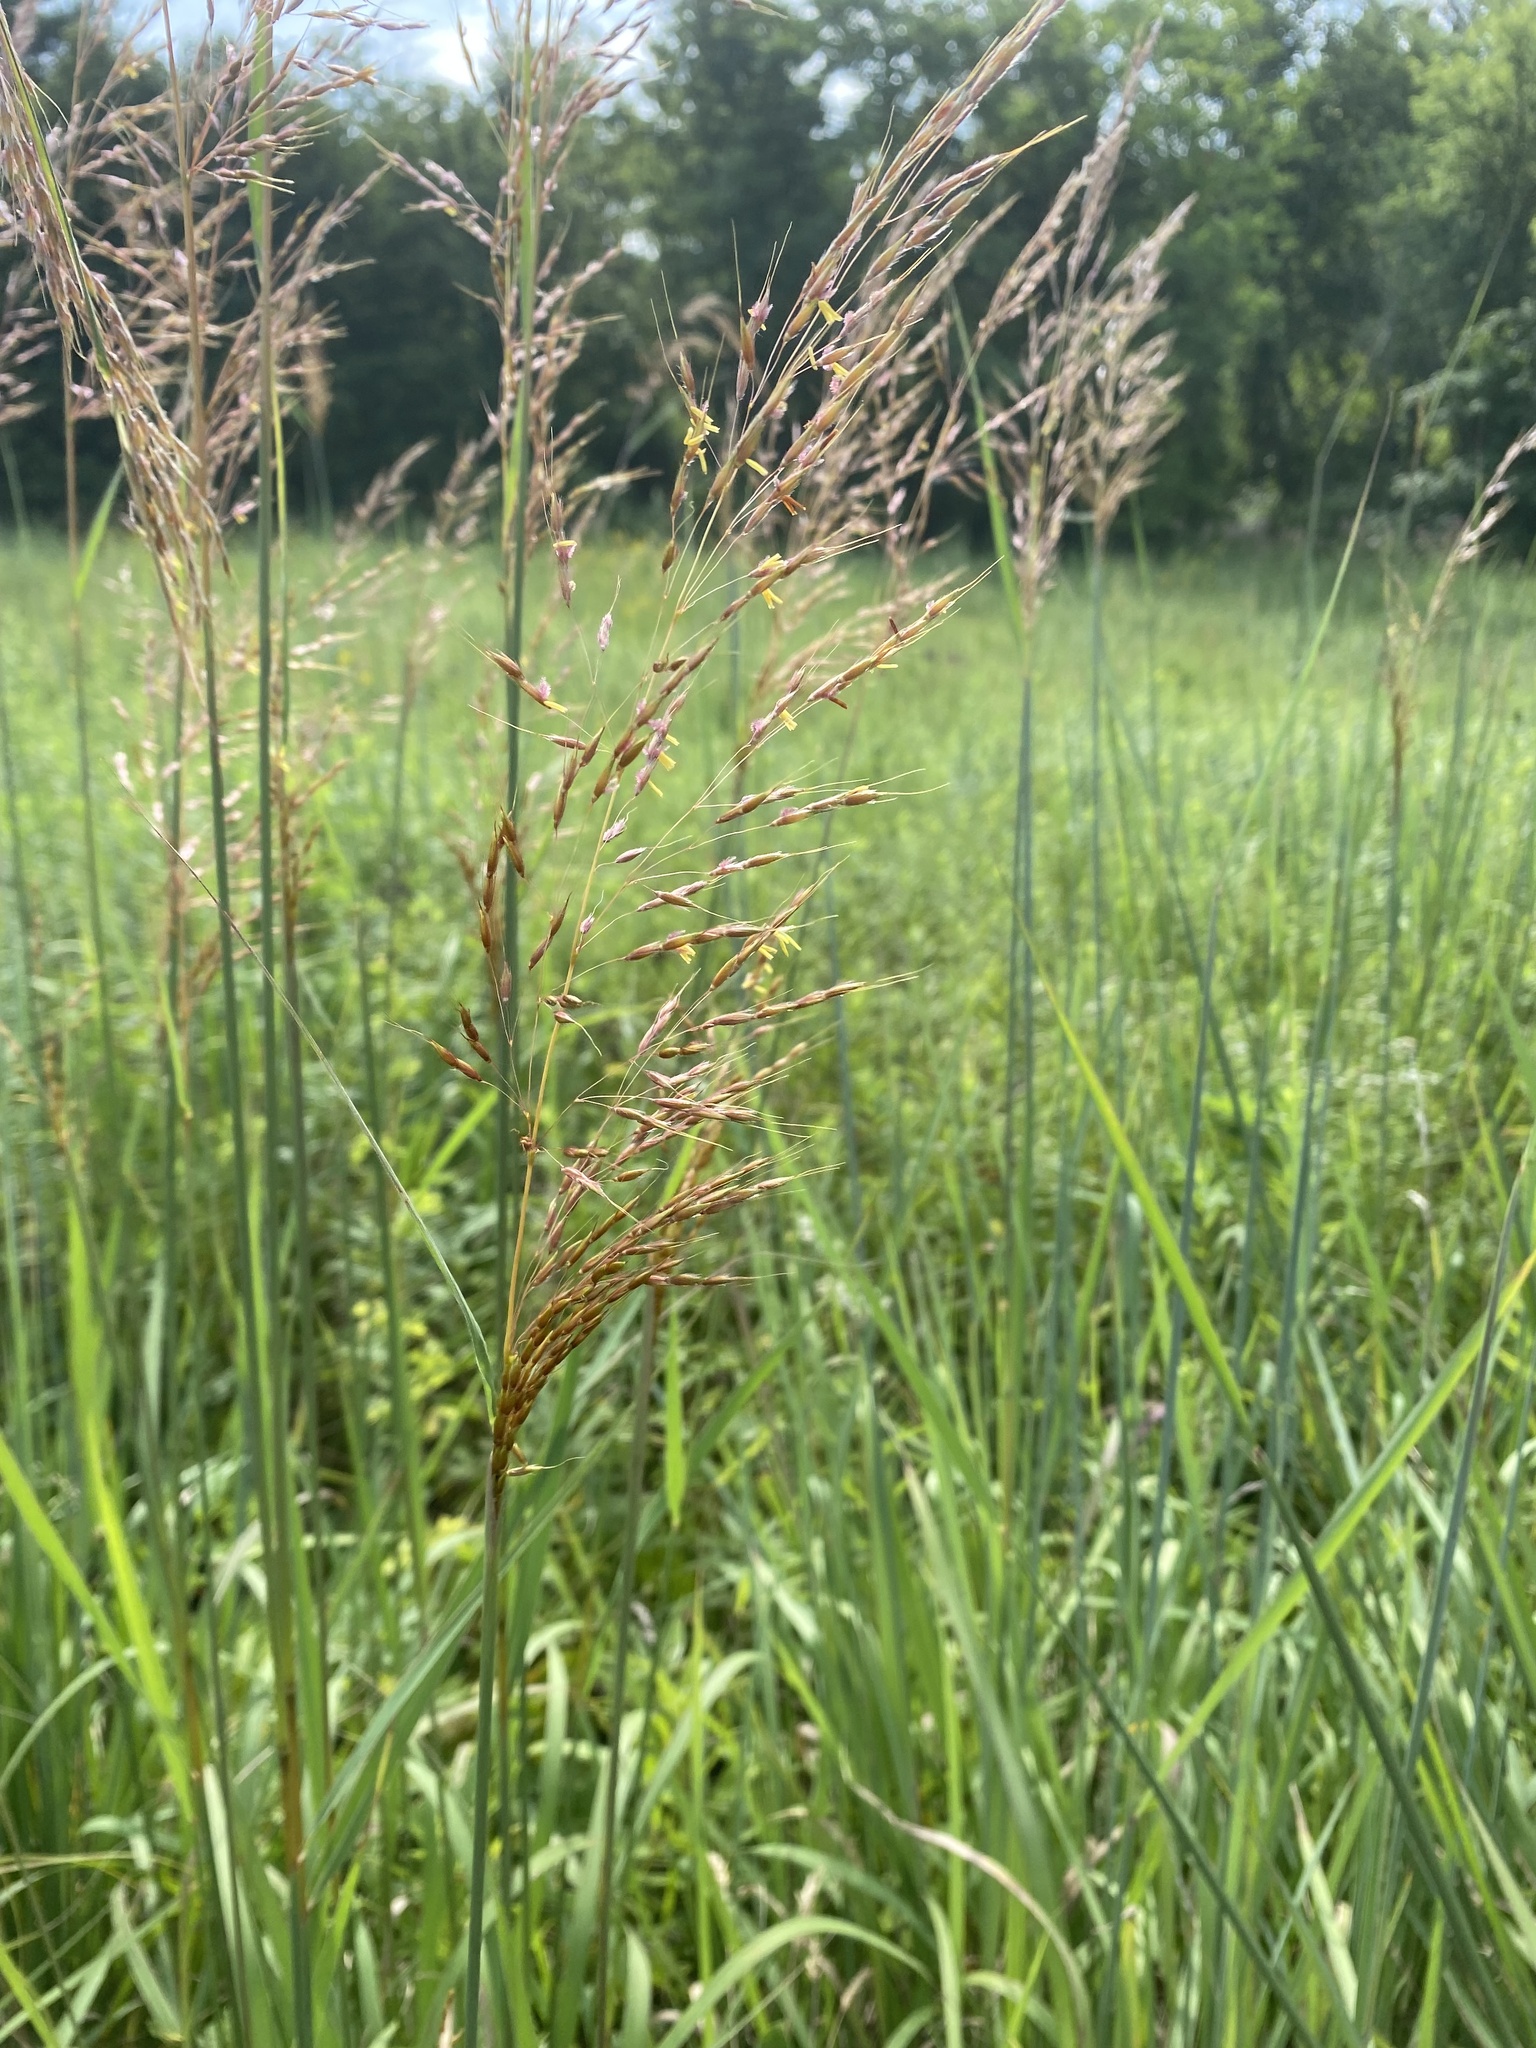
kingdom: Plantae
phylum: Tracheophyta
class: Liliopsida
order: Poales
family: Poaceae
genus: Sorghastrum
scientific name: Sorghastrum nutans
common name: Indian grass
